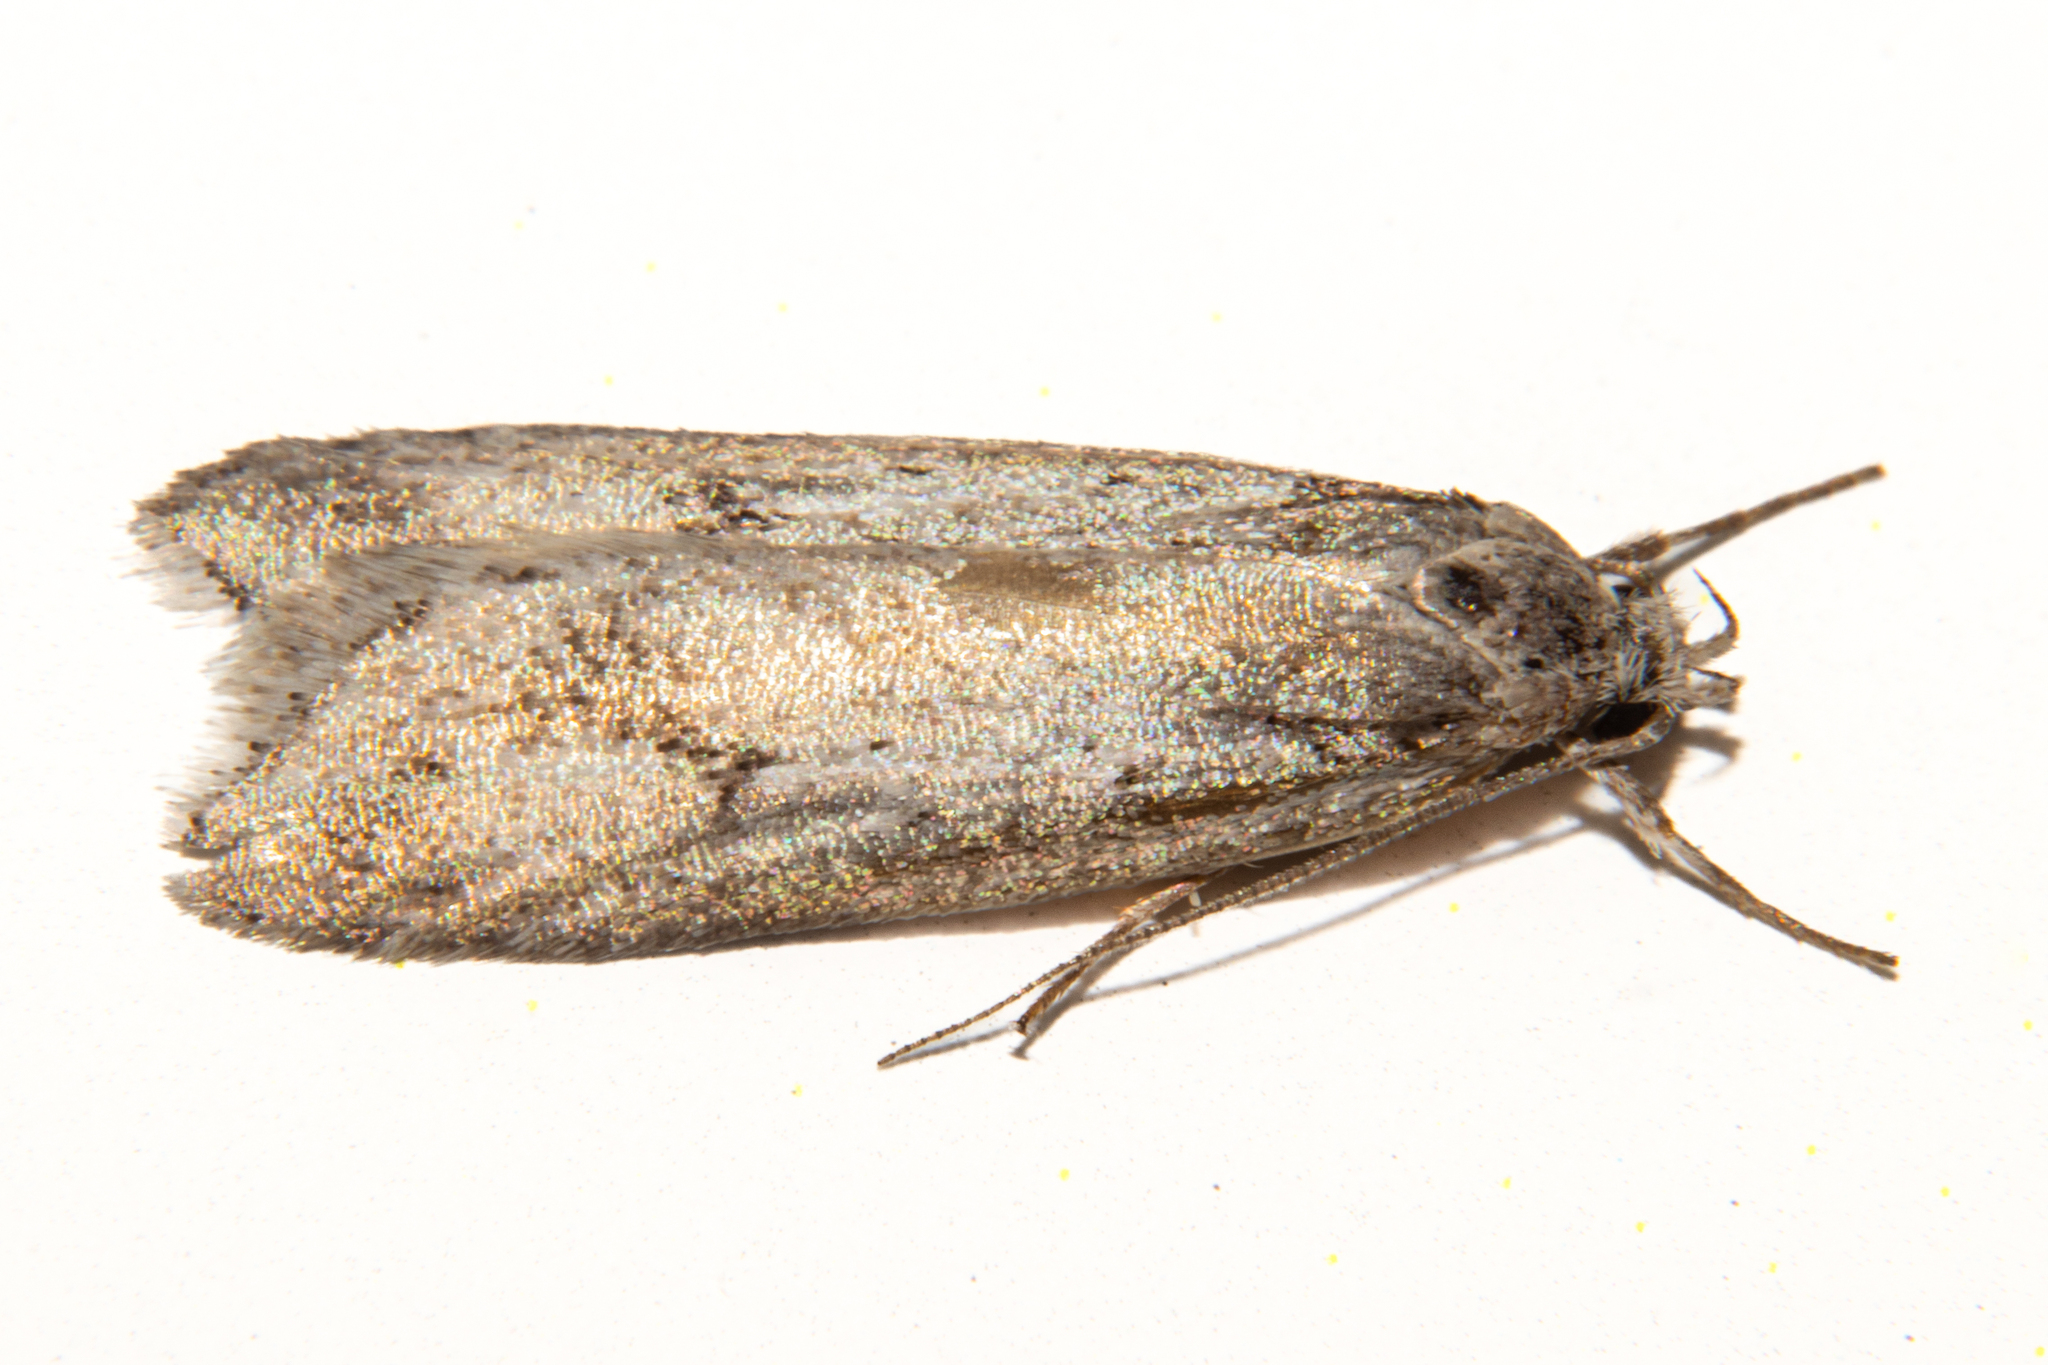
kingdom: Animalia
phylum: Arthropoda
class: Insecta
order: Lepidoptera
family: Oecophoridae
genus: Izatha
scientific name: Izatha psychra
